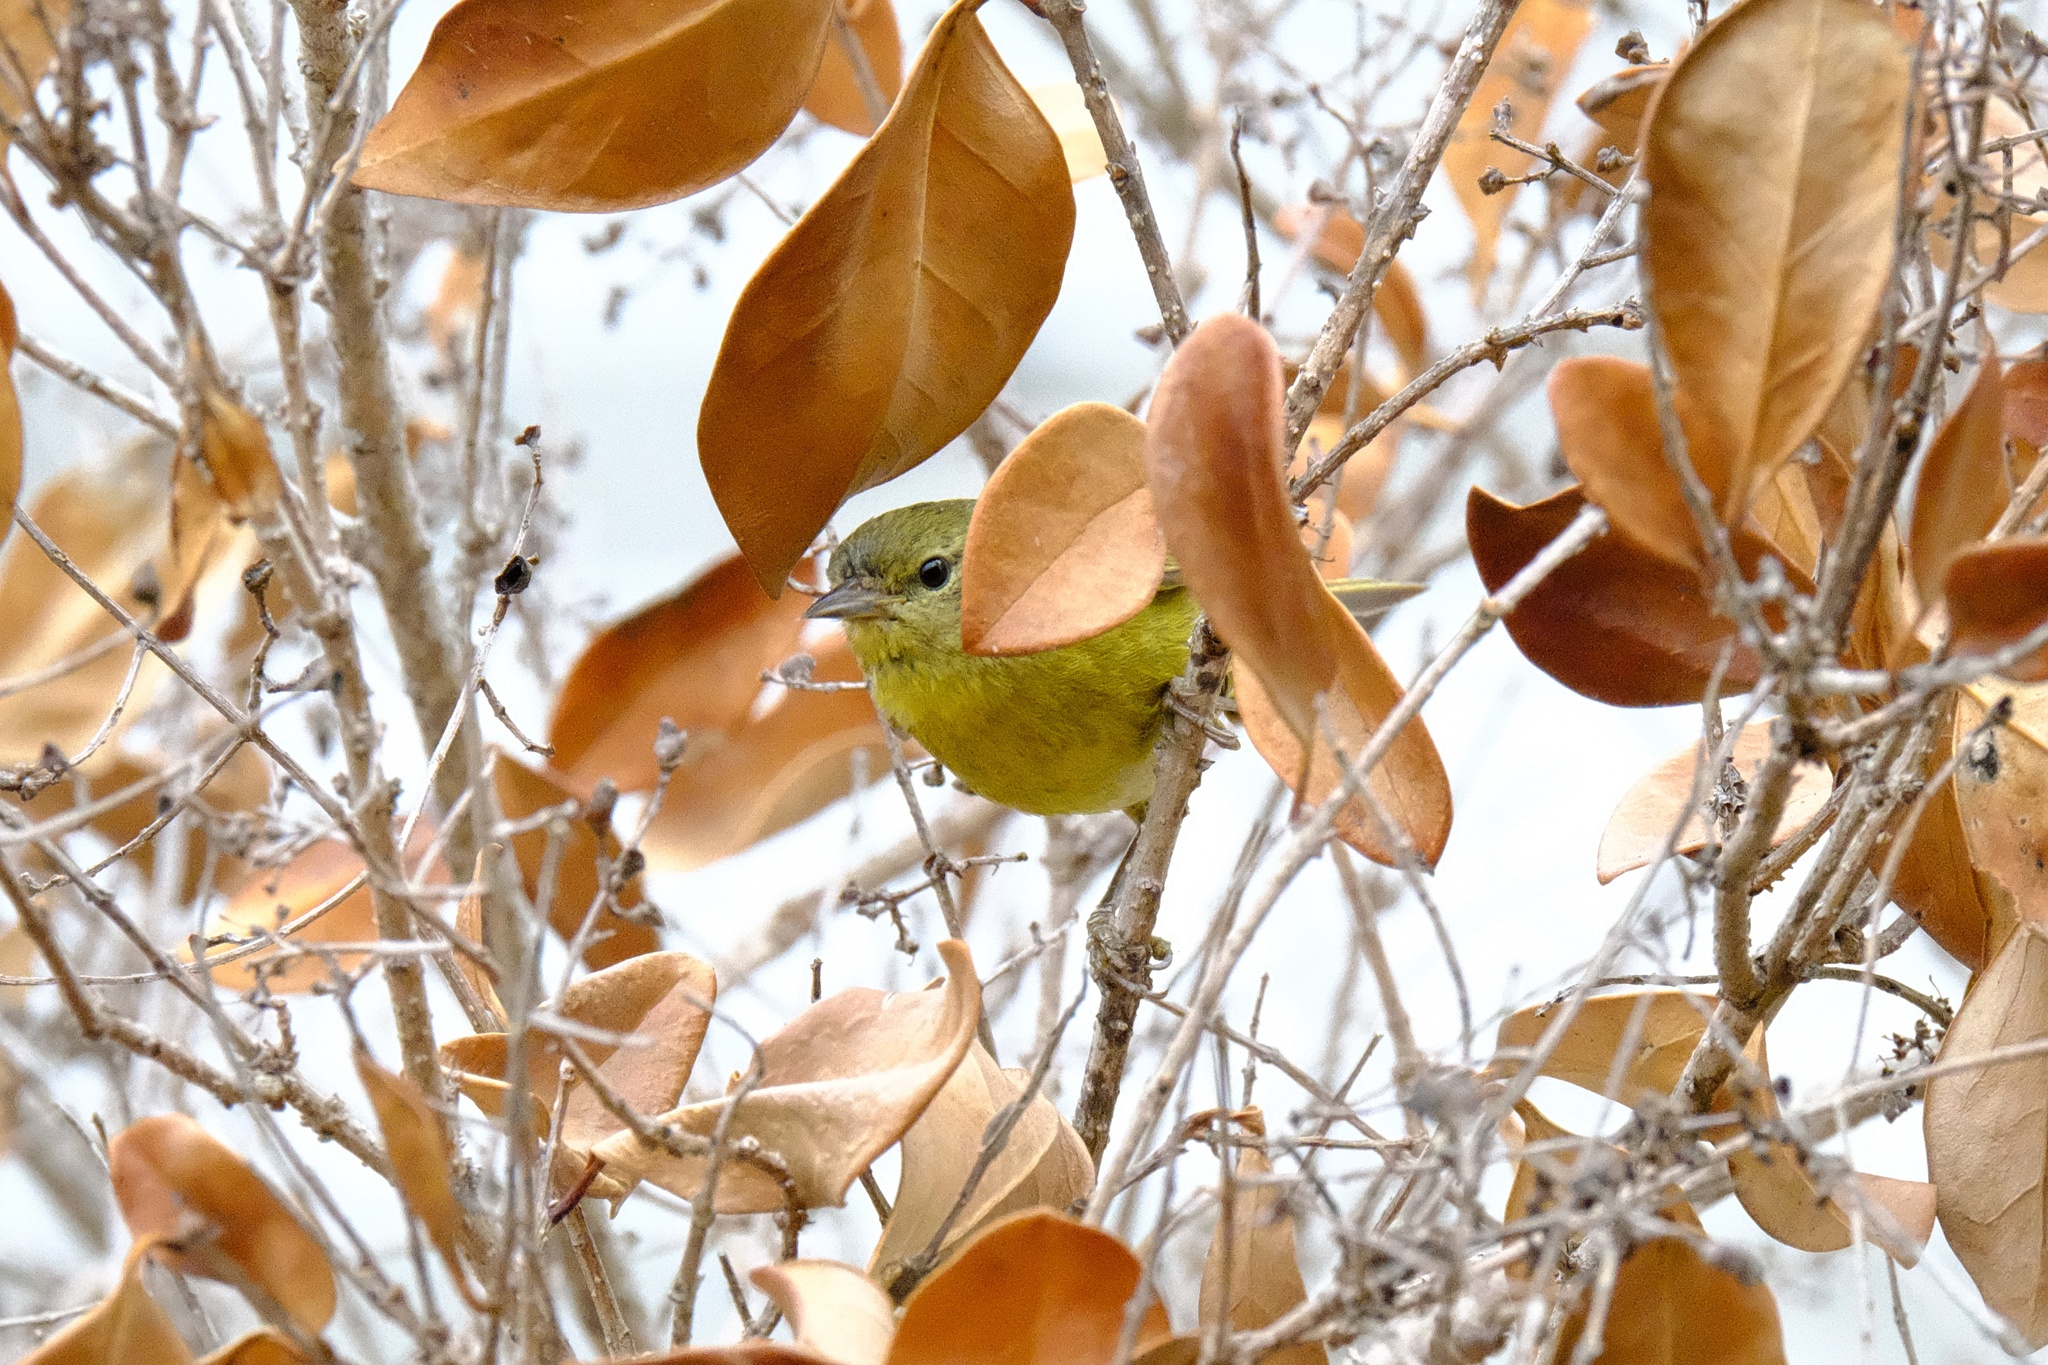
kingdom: Animalia
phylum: Chordata
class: Aves
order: Passeriformes
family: Parulidae
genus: Leiothlypis
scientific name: Leiothlypis celata
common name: Orange-crowned warbler
